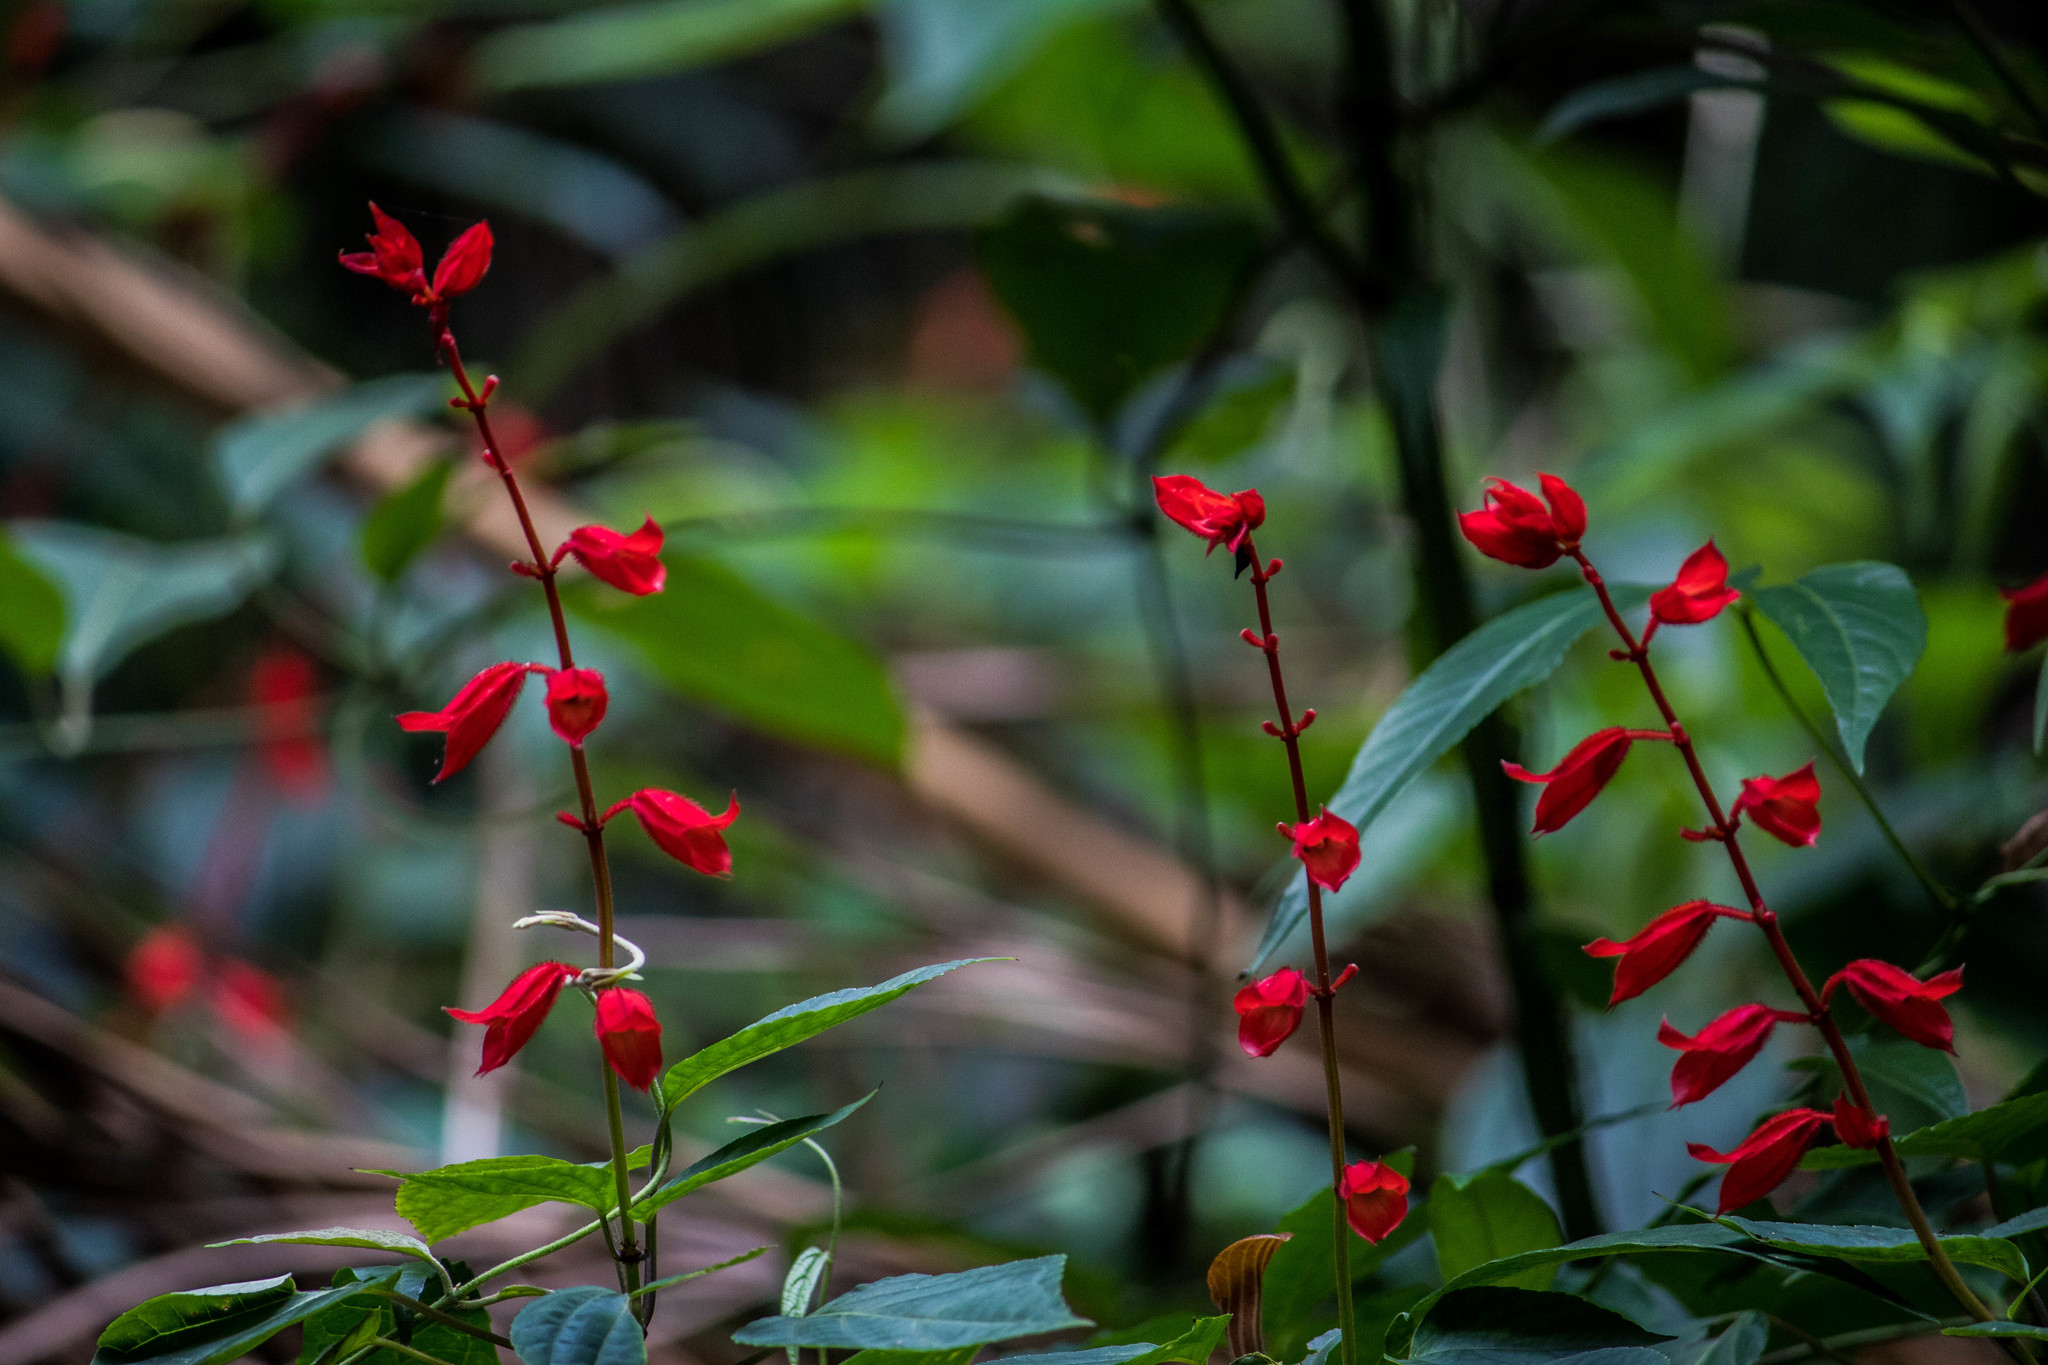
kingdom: Plantae
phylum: Tracheophyta
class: Magnoliopsida
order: Lamiales
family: Lamiaceae
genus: Salvia
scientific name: Salvia splendens
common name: Scarlet sage
